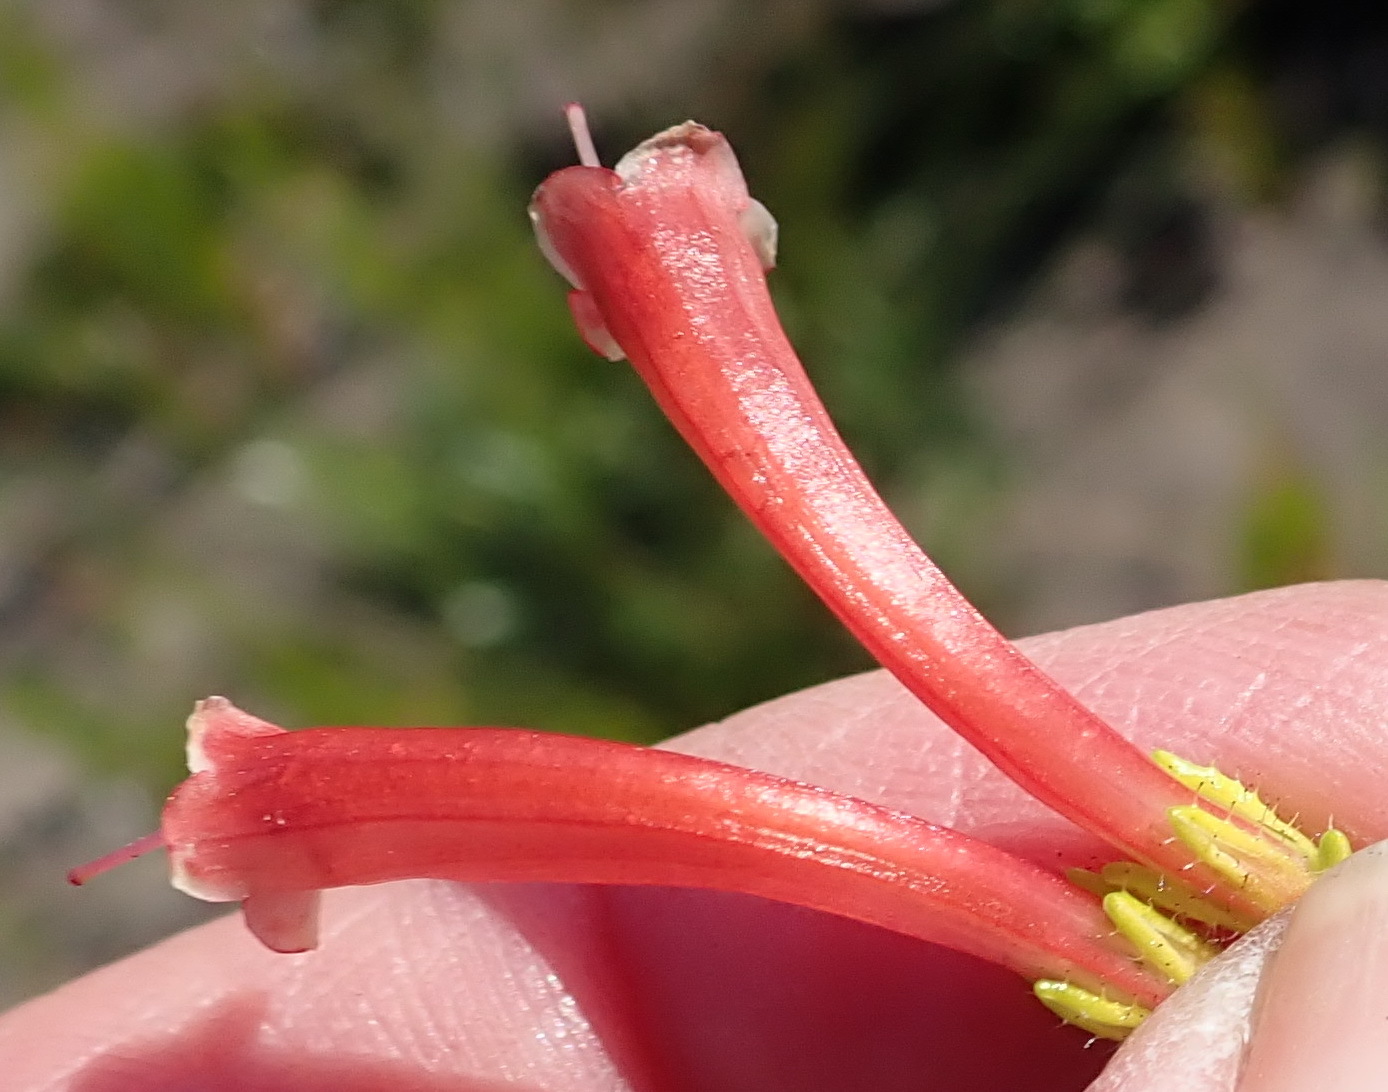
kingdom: Plantae
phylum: Tracheophyta
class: Magnoliopsida
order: Ericales
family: Ericaceae
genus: Erica
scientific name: Erica glandulosa
